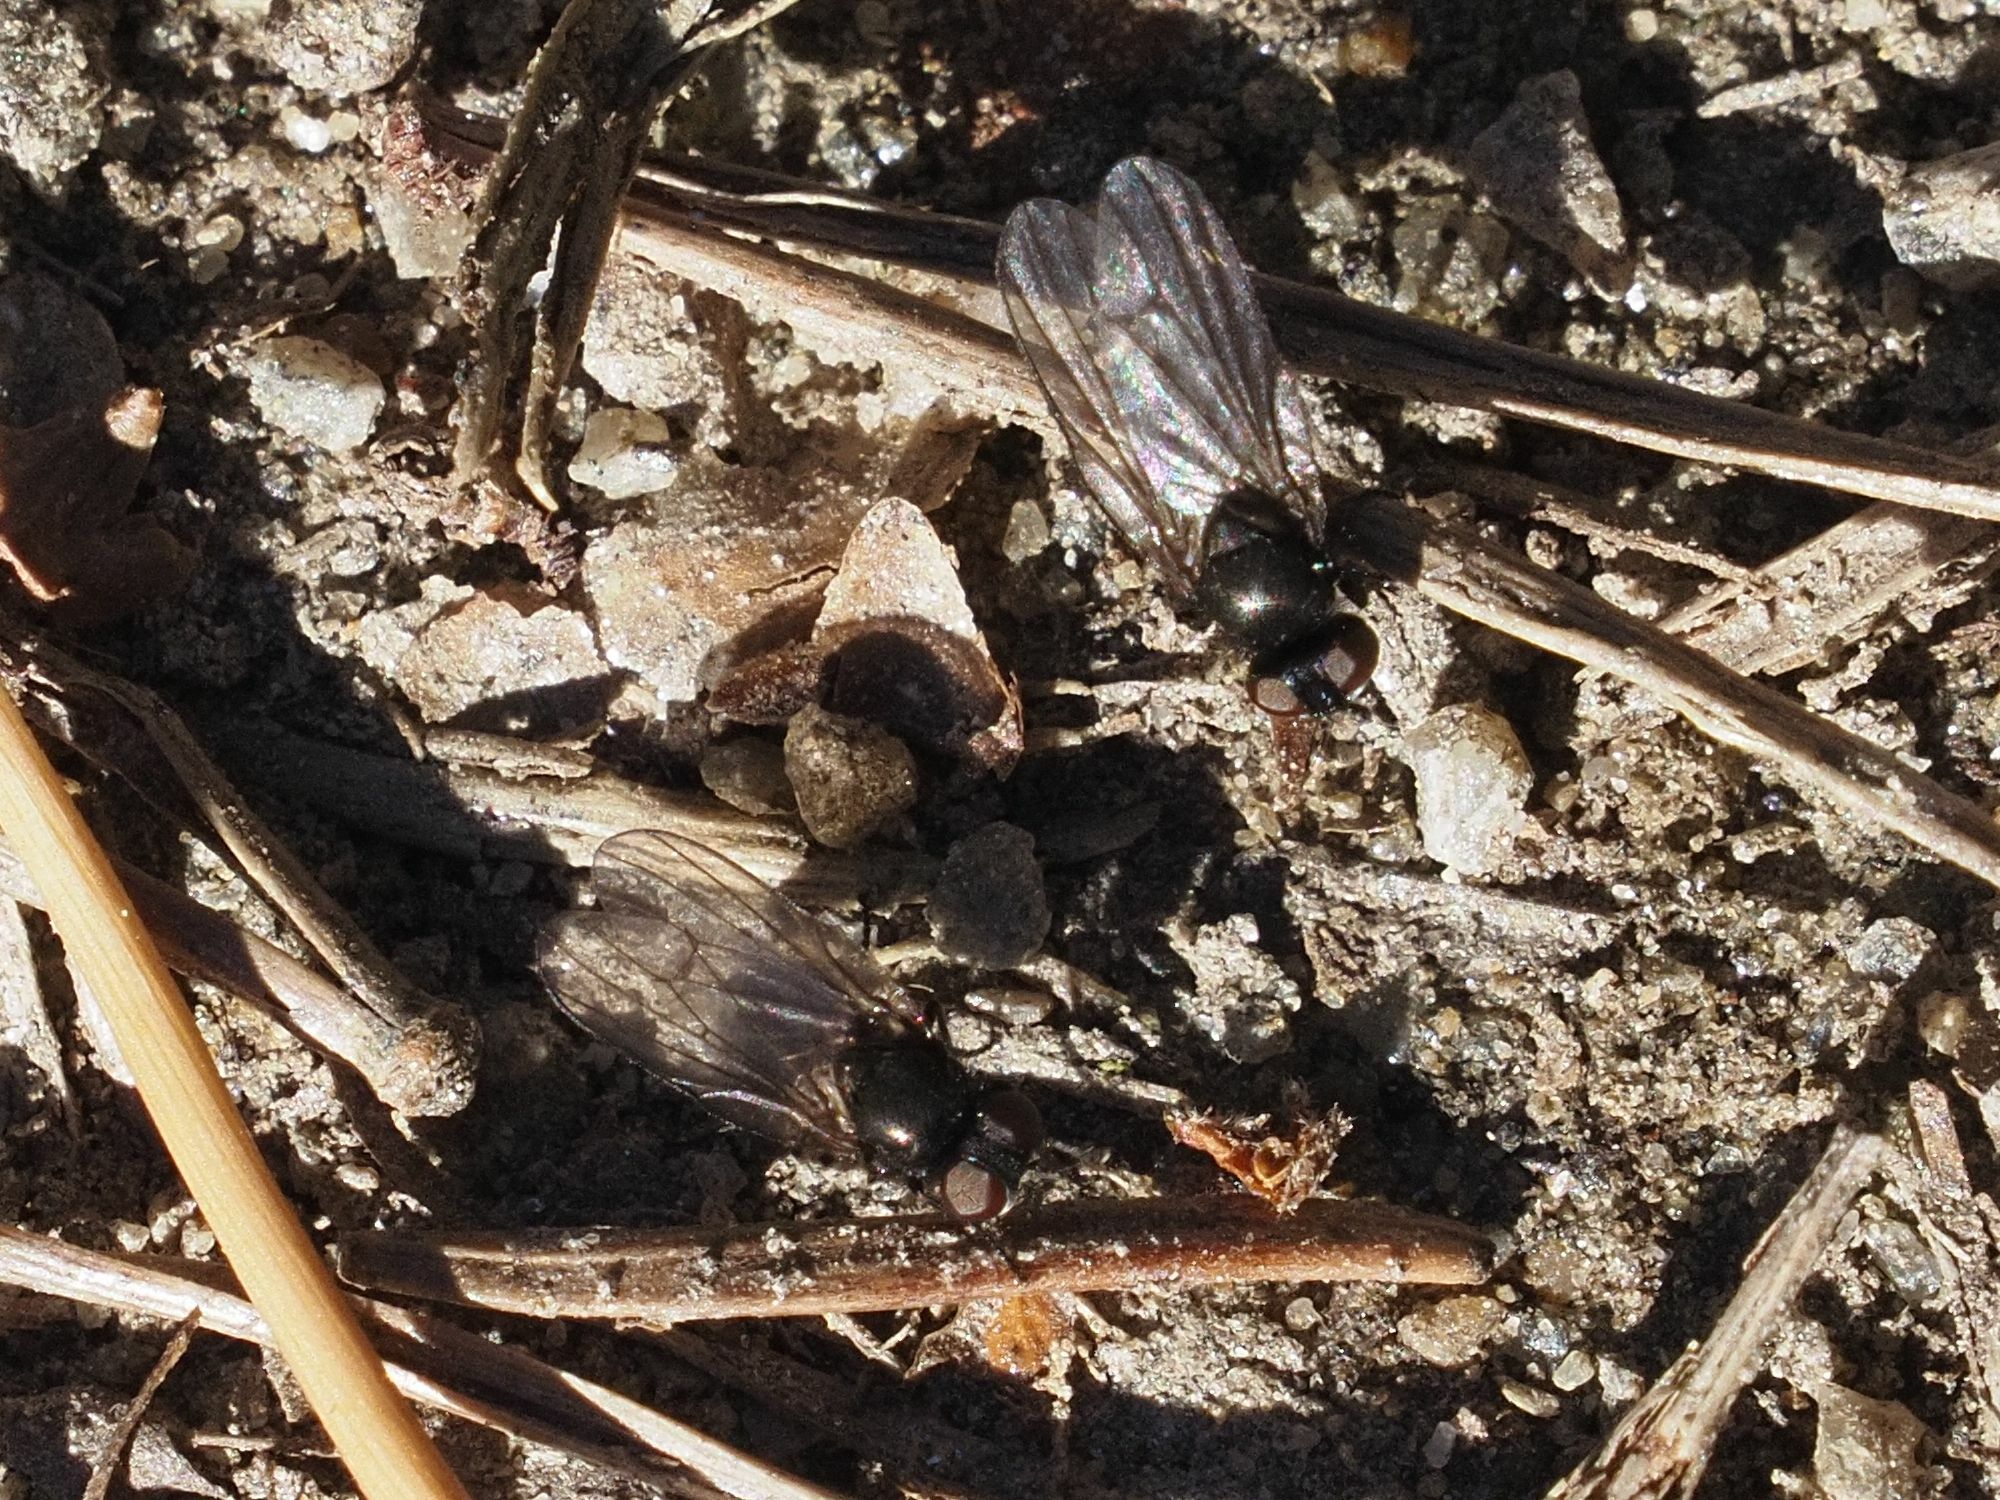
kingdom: Animalia
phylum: Arthropoda
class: Insecta
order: Diptera
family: Lonchaeidae
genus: Earomyia
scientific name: Earomyia lonchaeoides
